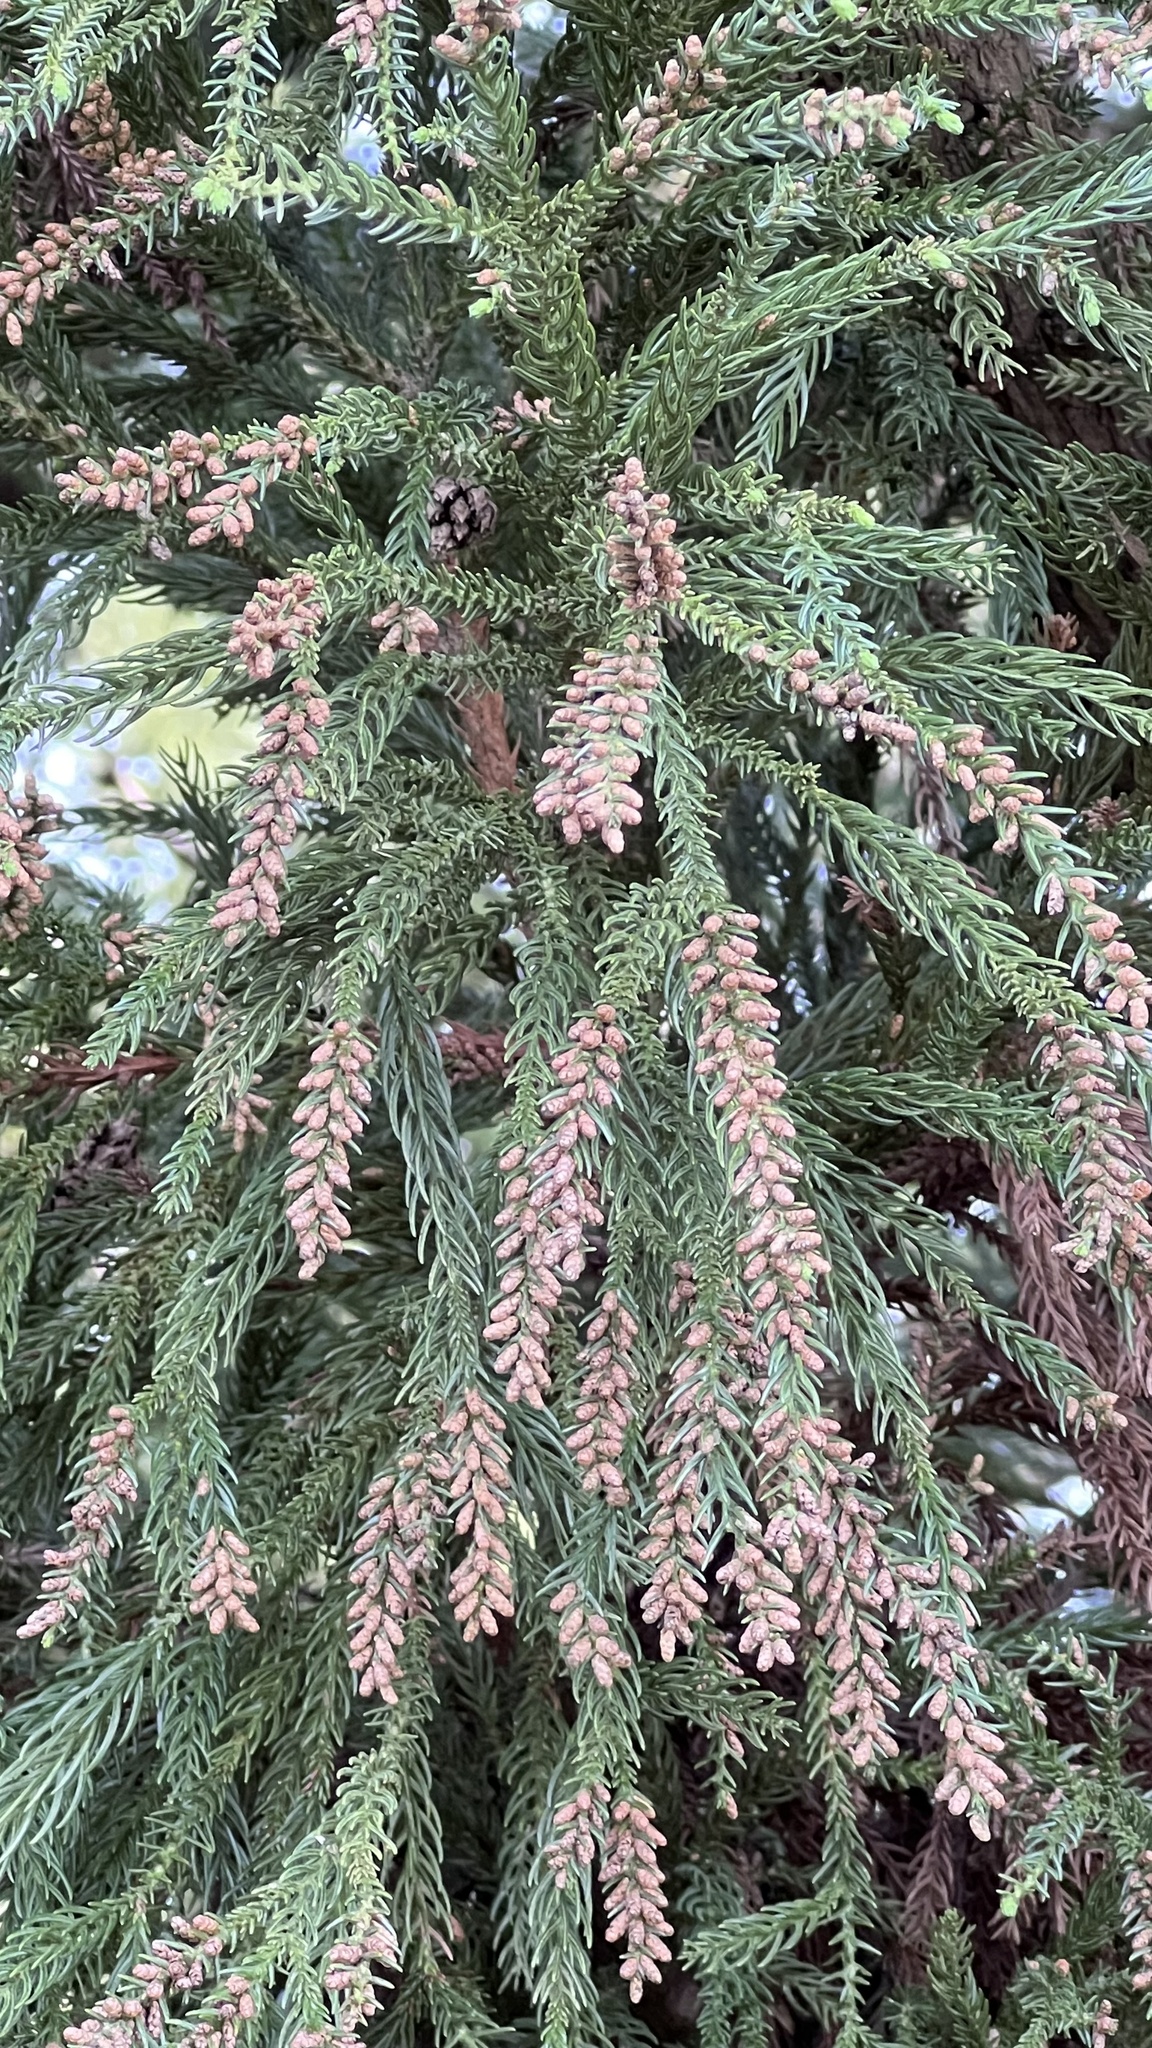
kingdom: Plantae
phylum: Tracheophyta
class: Pinopsida
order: Pinales
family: Cupressaceae
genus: Cryptomeria
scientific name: Cryptomeria japonica
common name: Japanese cedar
